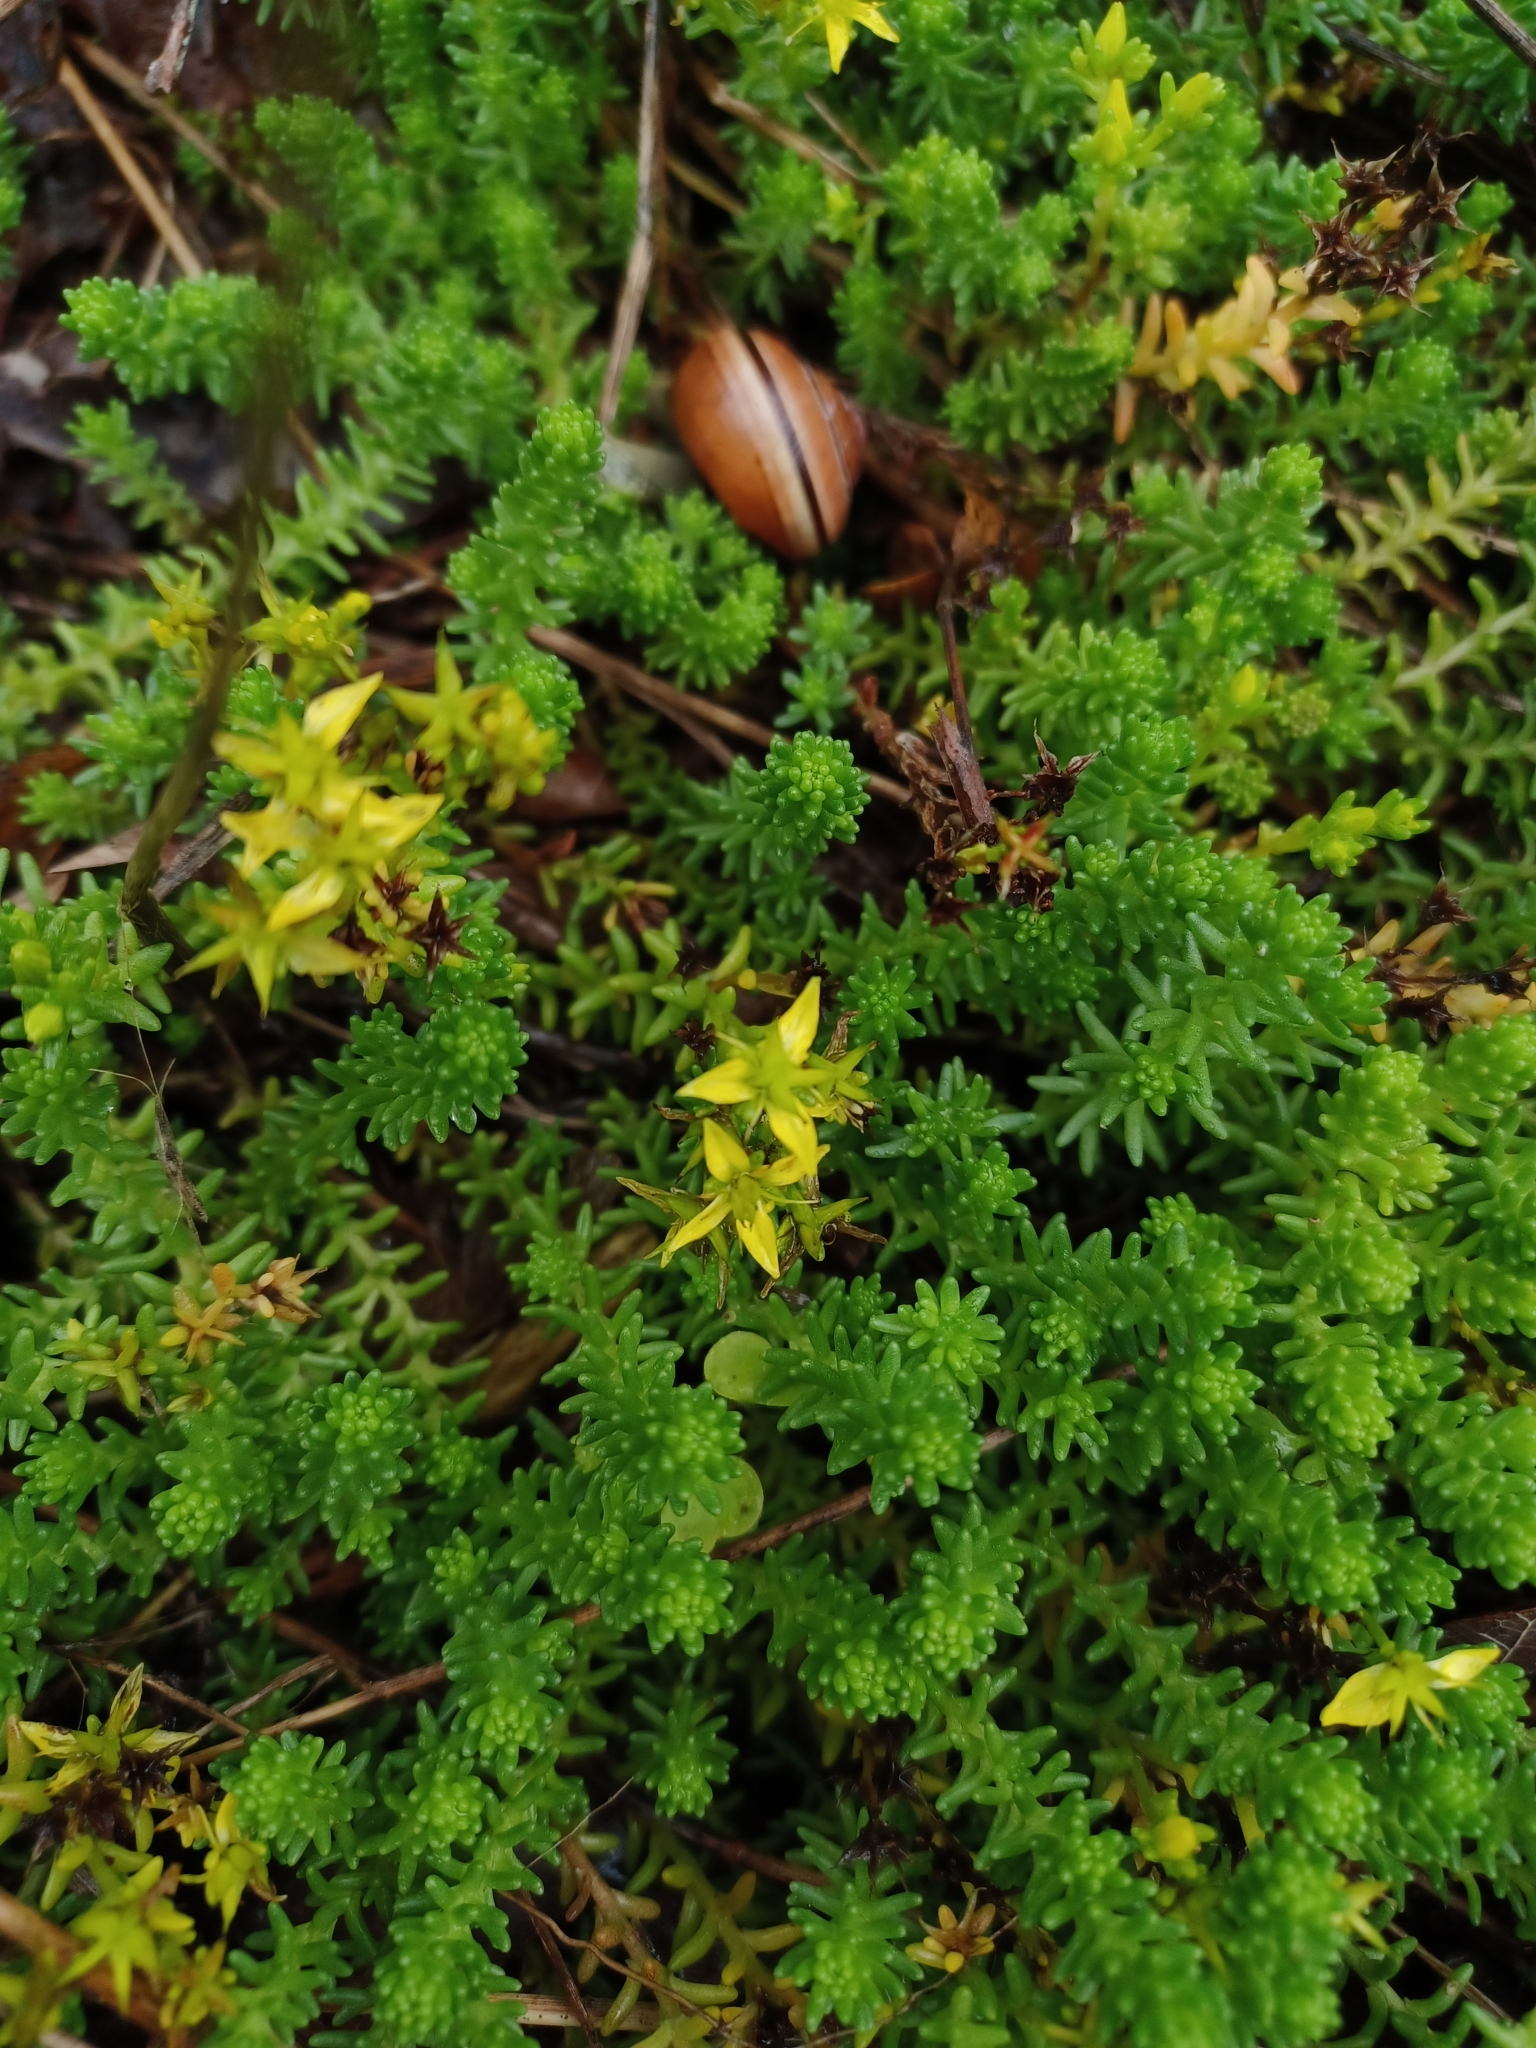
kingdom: Plantae
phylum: Tracheophyta
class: Magnoliopsida
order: Saxifragales
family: Crassulaceae
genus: Sedum
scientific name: Sedum sexangulare
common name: Tasteless stonecrop
